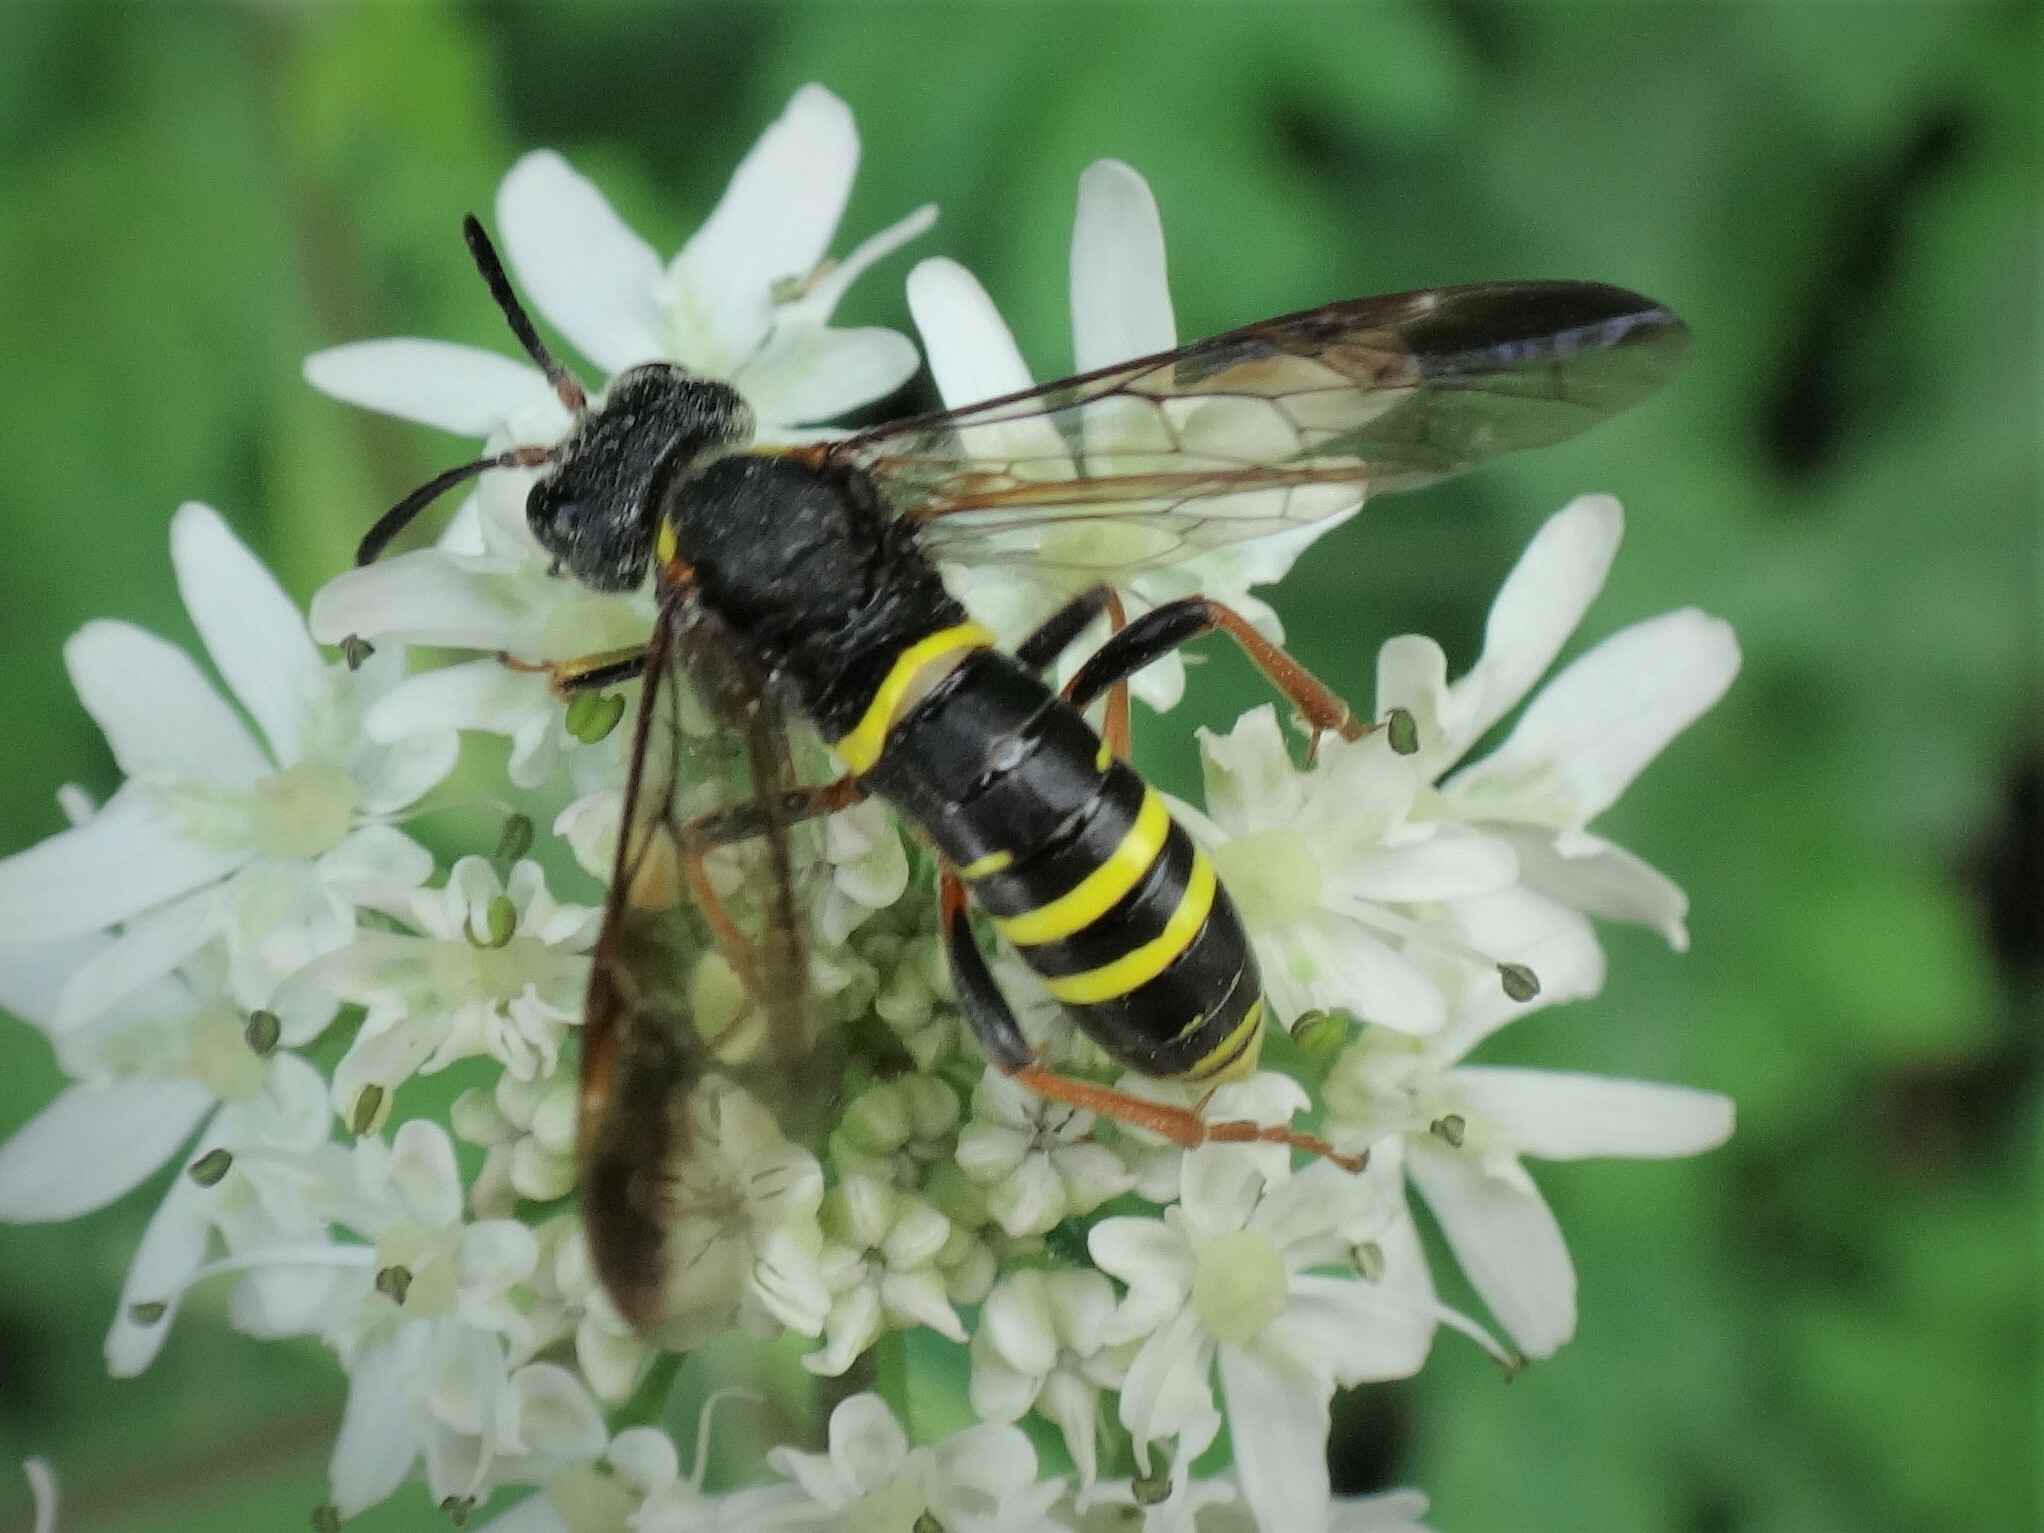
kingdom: Animalia
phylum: Arthropoda
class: Insecta
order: Hymenoptera
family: Tenthredinidae
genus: Tenthredo
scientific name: Tenthredo vespa
